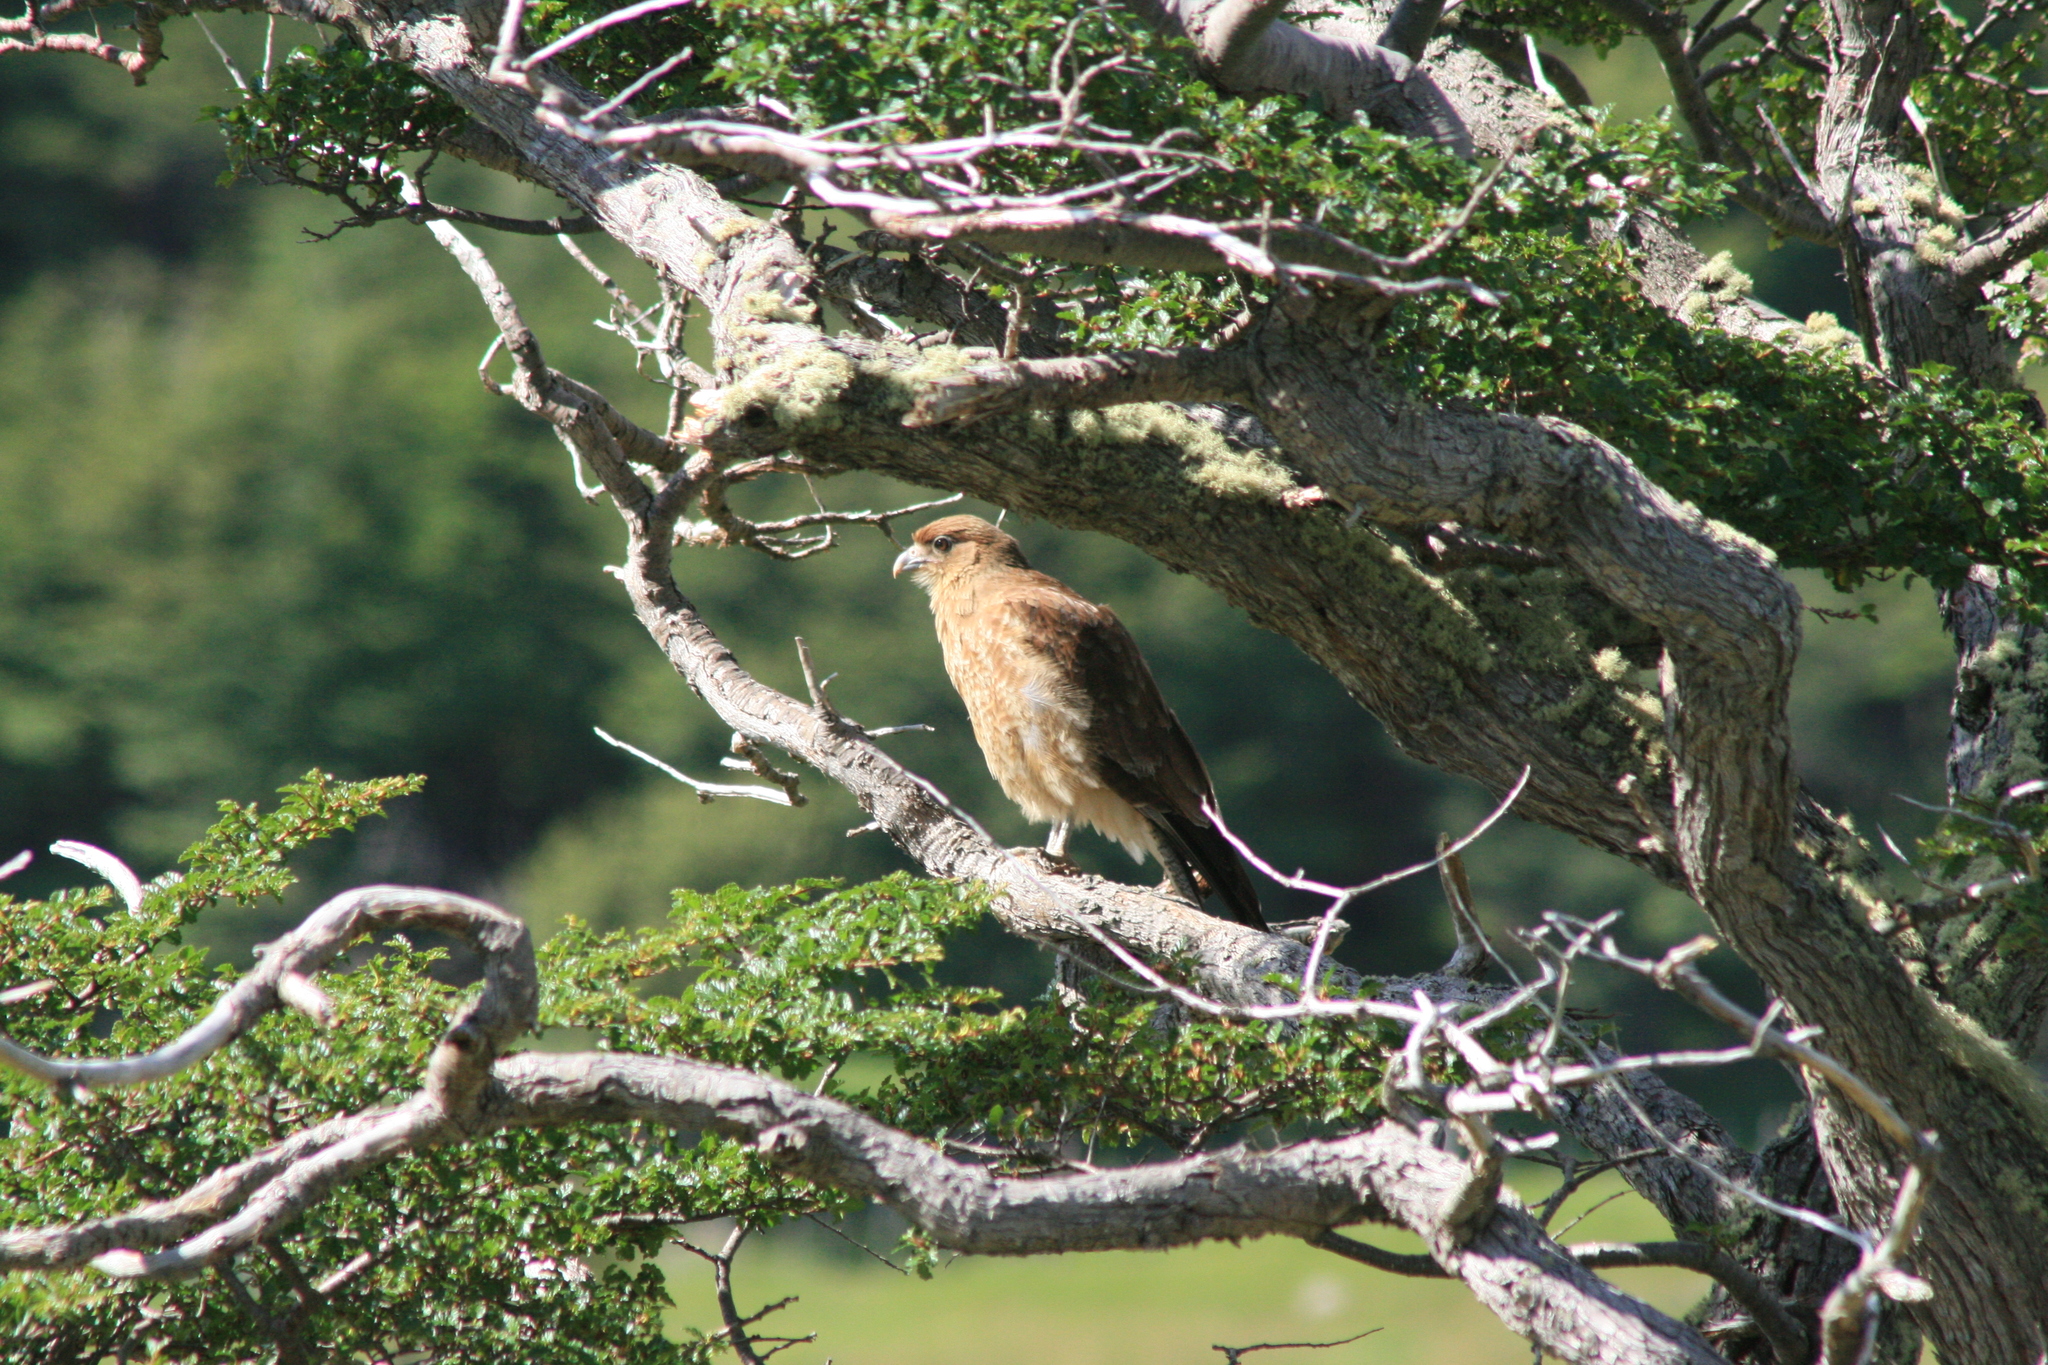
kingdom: Animalia
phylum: Chordata
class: Aves
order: Falconiformes
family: Falconidae
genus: Daptrius
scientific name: Daptrius
